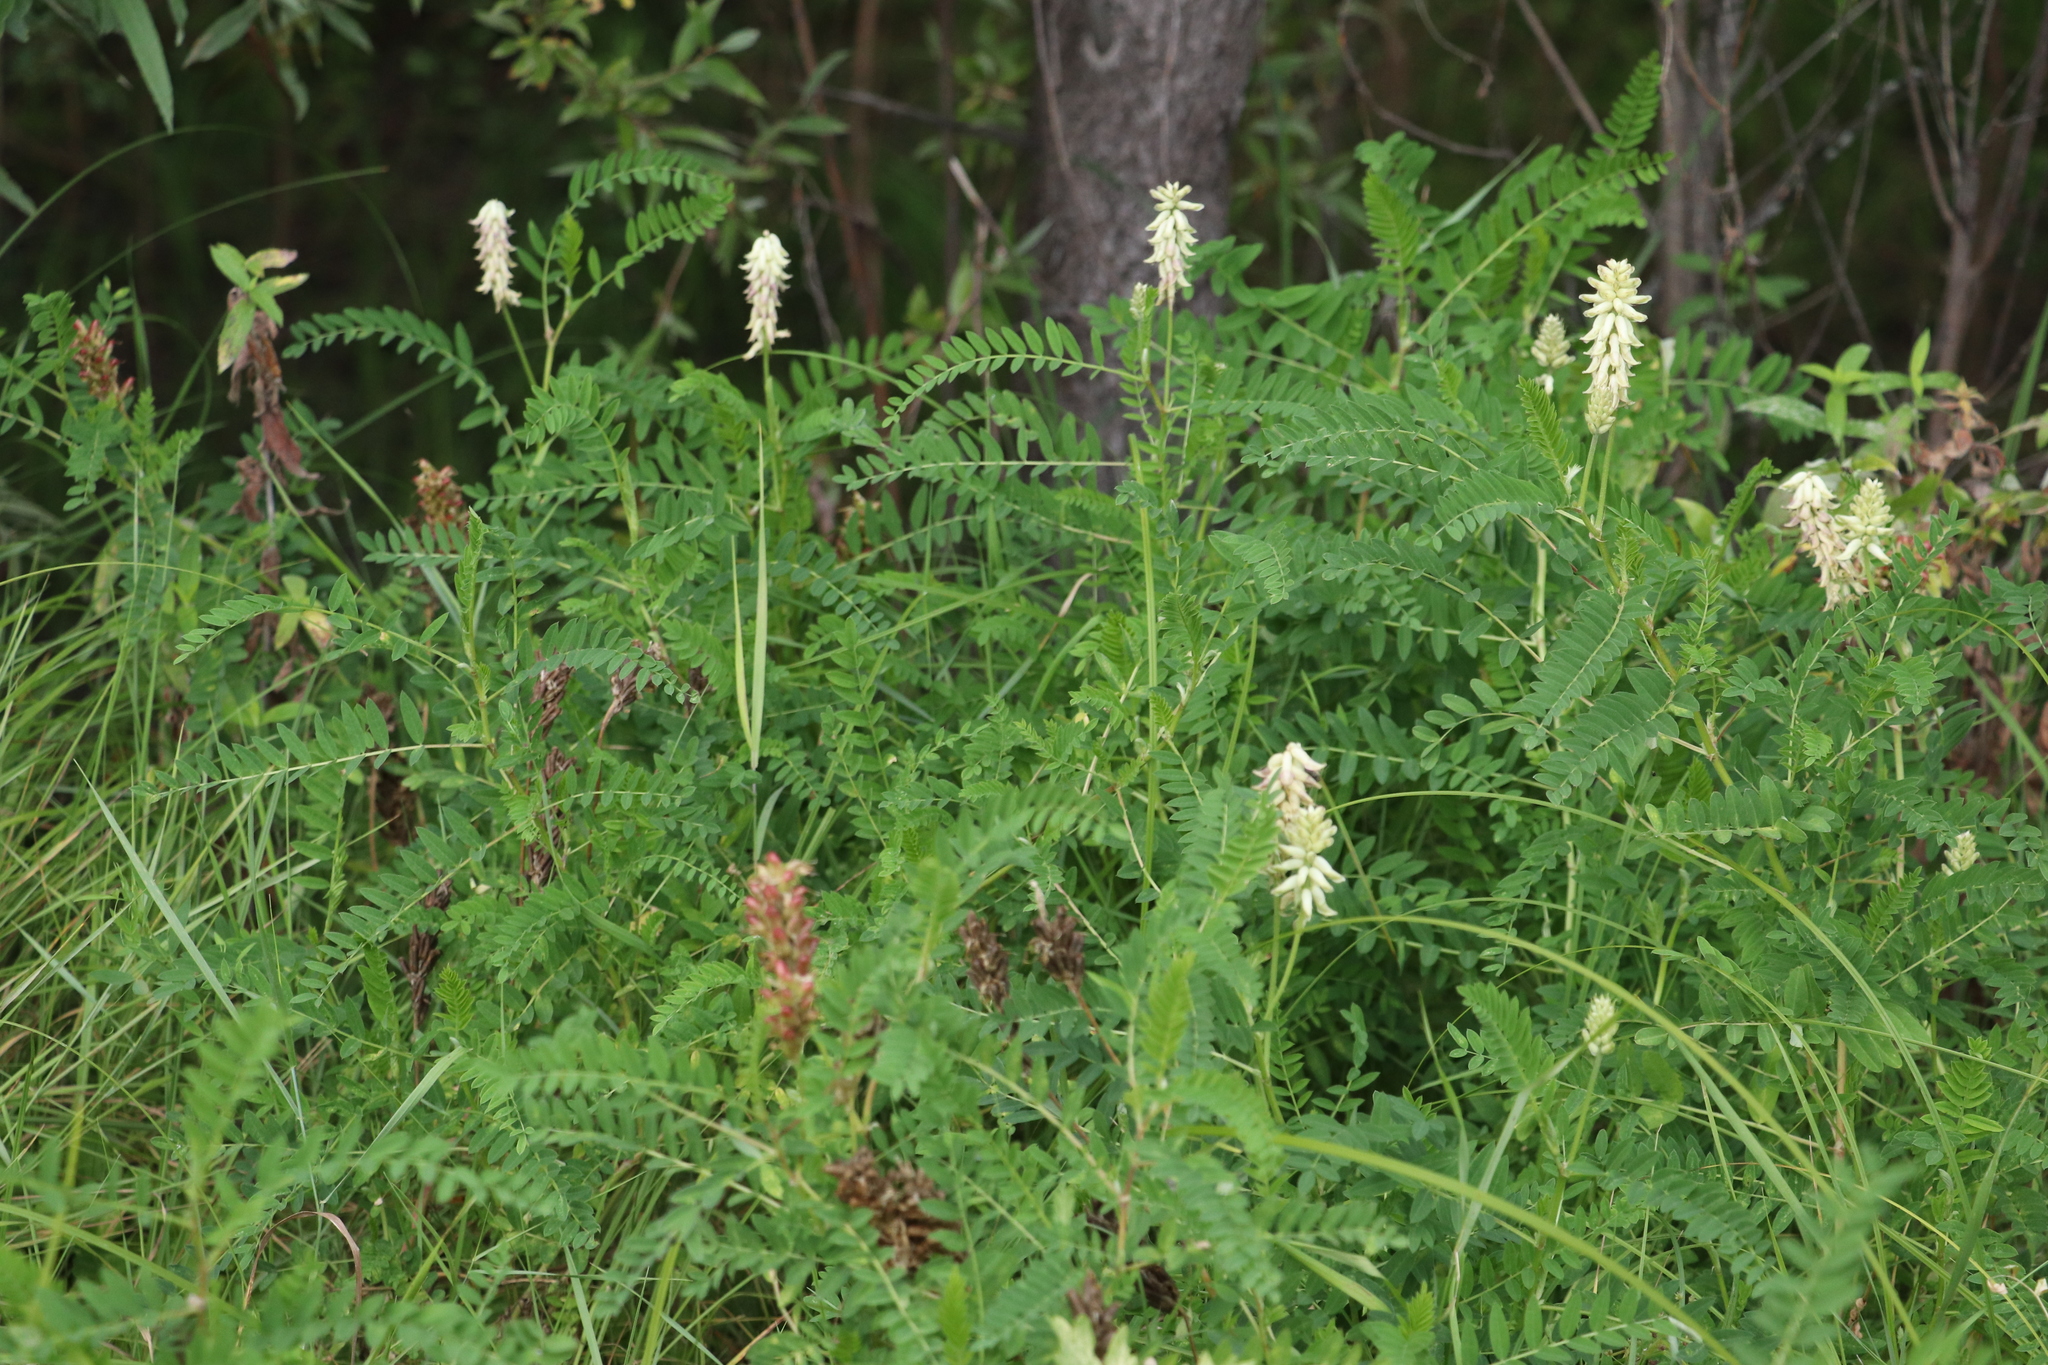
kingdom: Plantae
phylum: Tracheophyta
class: Magnoliopsida
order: Fabales
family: Fabaceae
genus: Astragalus
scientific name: Astragalus uliginosus
